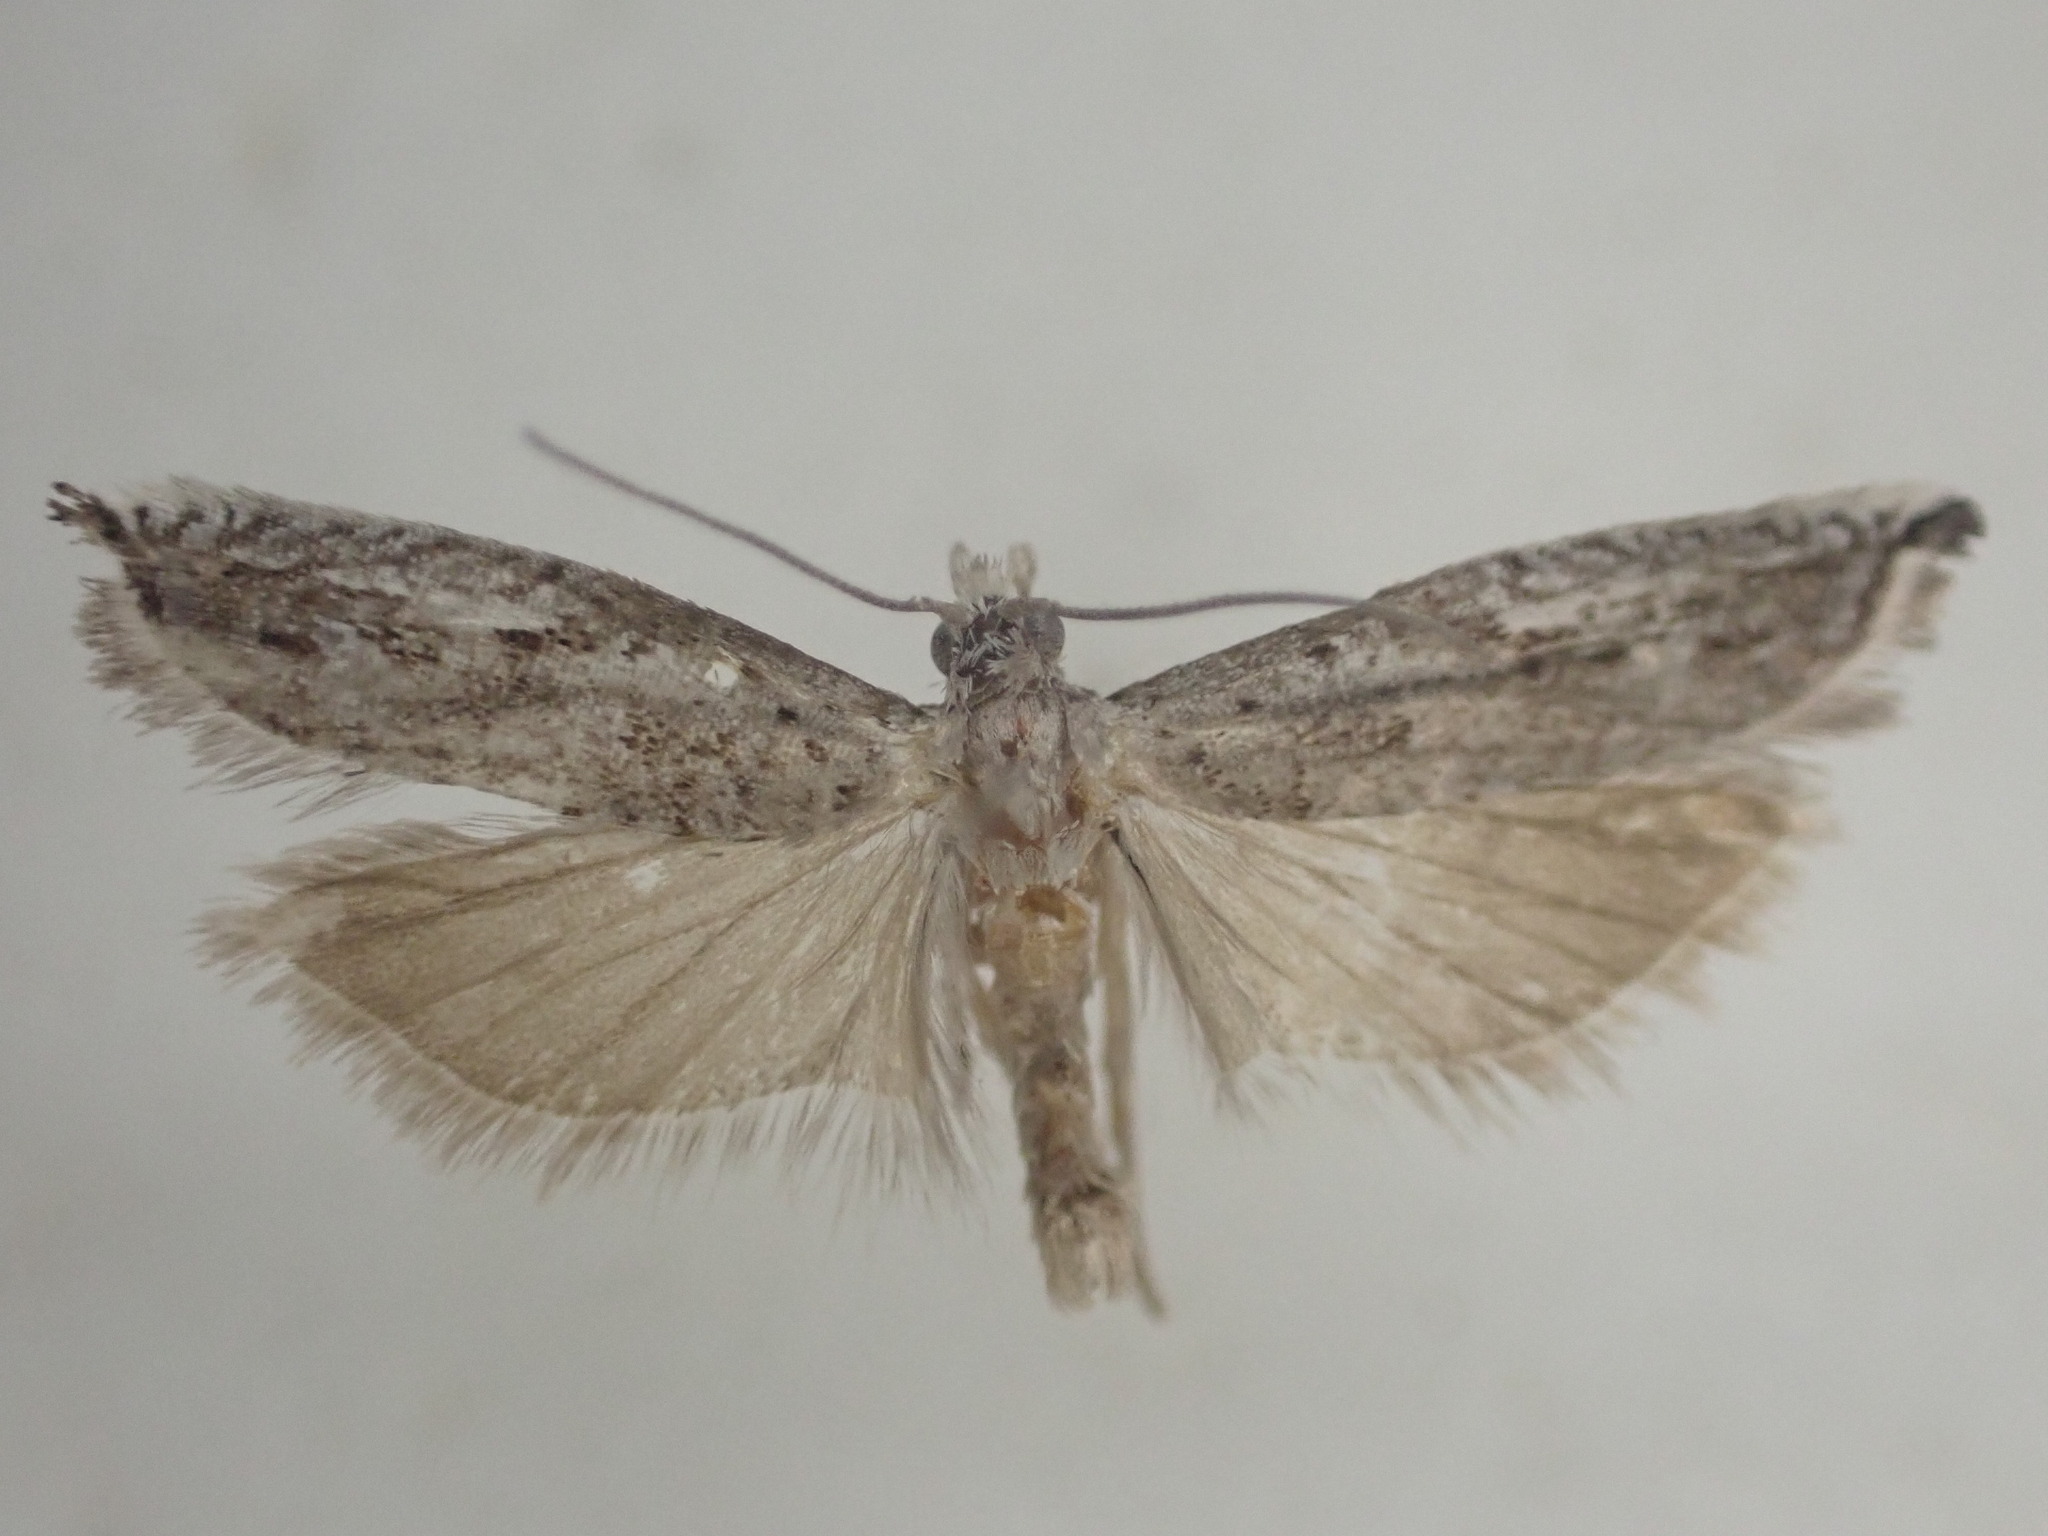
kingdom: Animalia
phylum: Arthropoda
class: Insecta
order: Lepidoptera
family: Tortricidae
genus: Holocola
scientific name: Holocola zopherana
